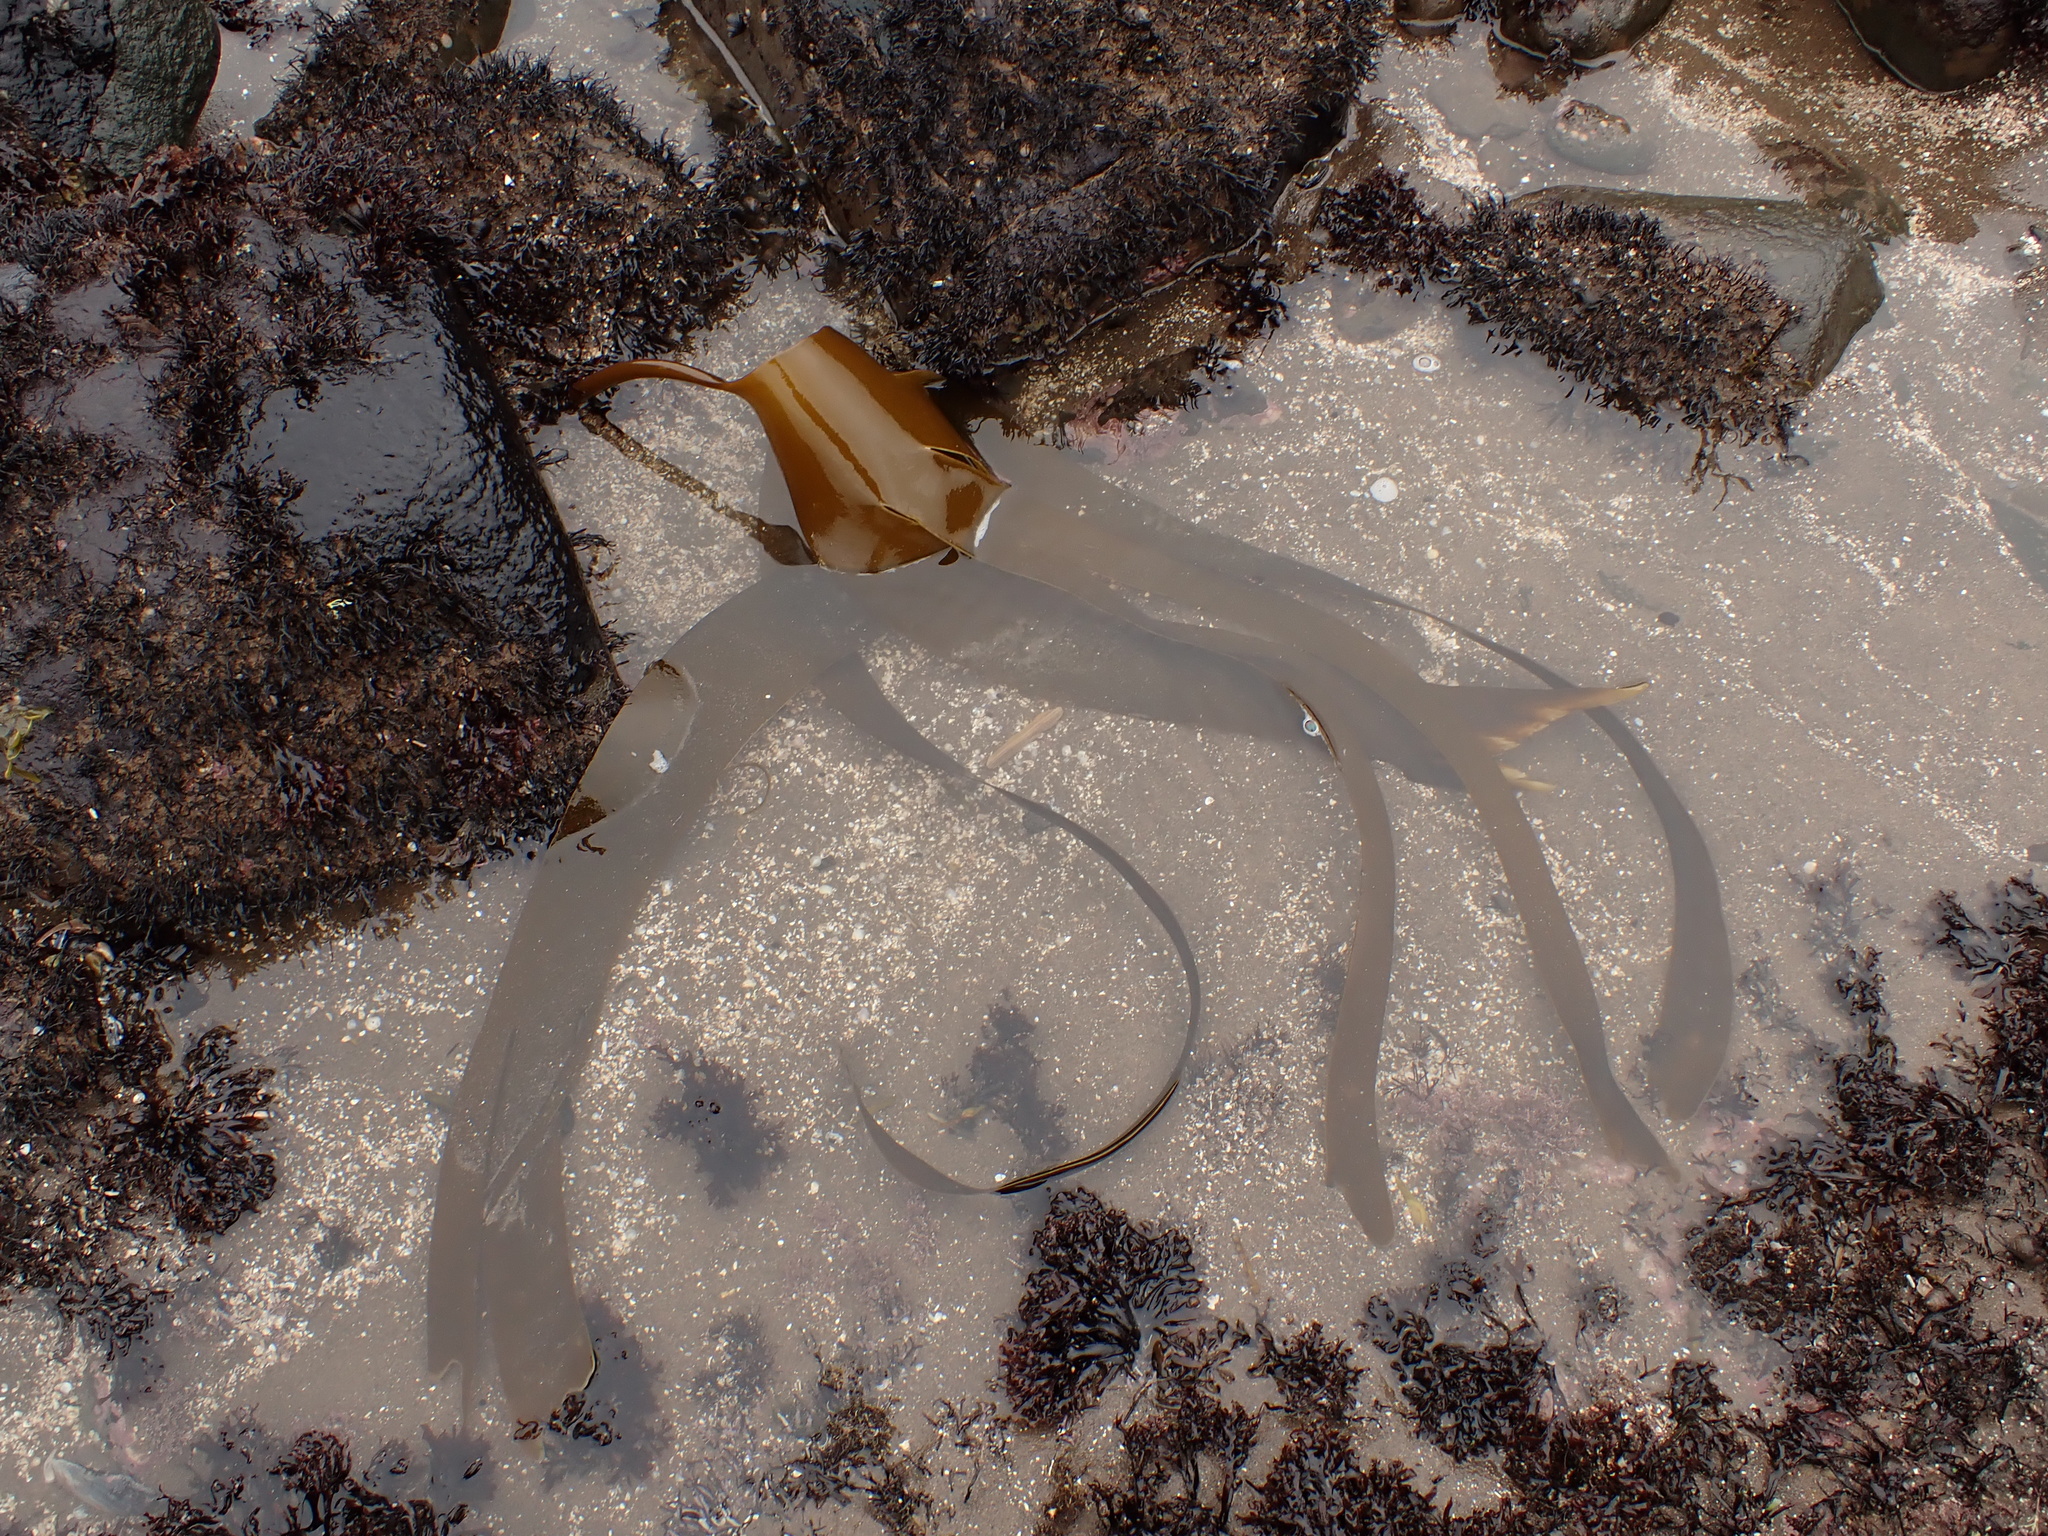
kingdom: Chromista
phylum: Ochrophyta
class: Phaeophyceae
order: Laminariales
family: Laminariaceae
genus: Laminaria
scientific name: Laminaria digitata
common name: Oarweed
